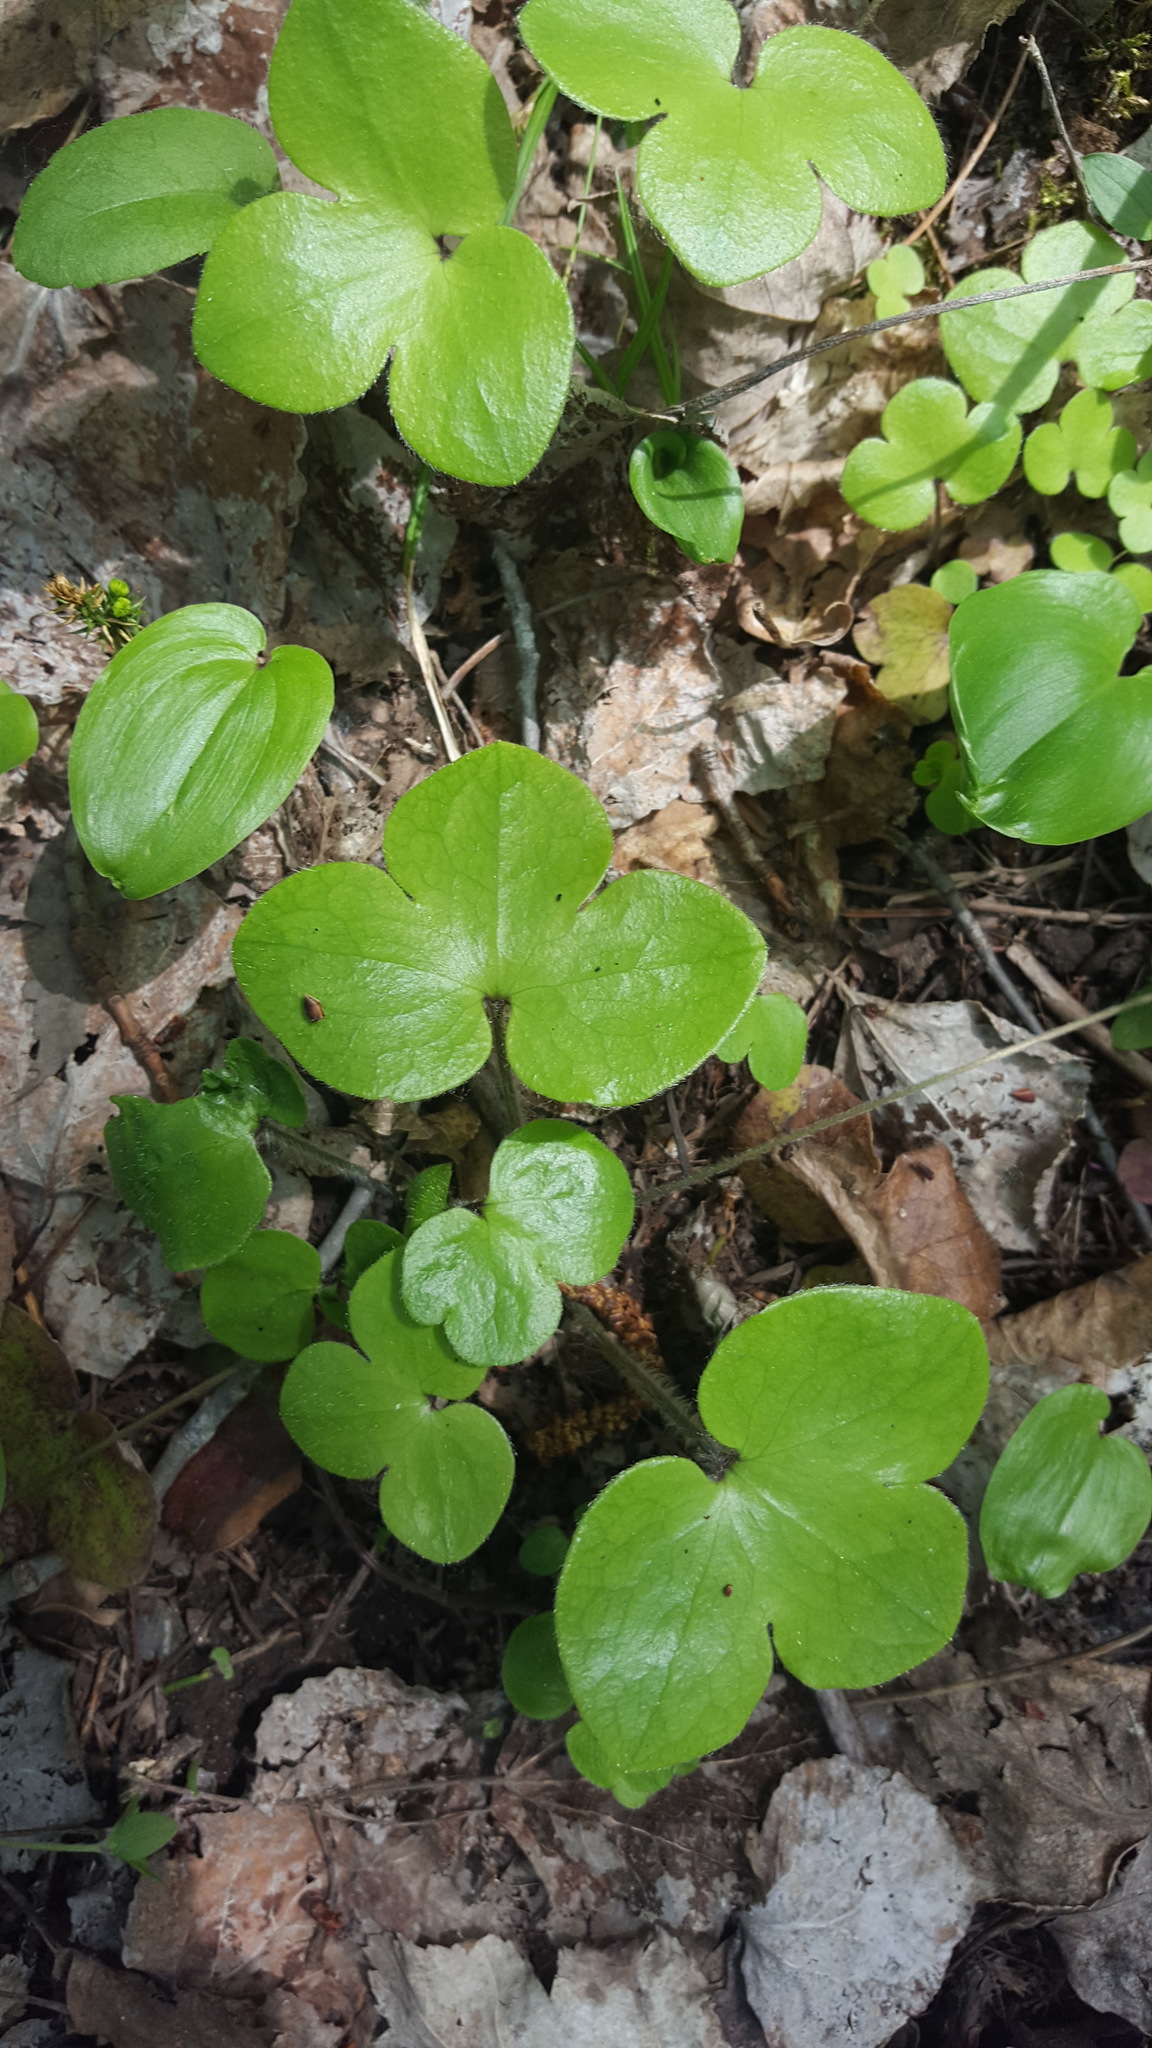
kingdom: Plantae
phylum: Tracheophyta
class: Magnoliopsida
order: Ranunculales
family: Ranunculaceae
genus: Hepatica
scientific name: Hepatica americana
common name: American hepatica
